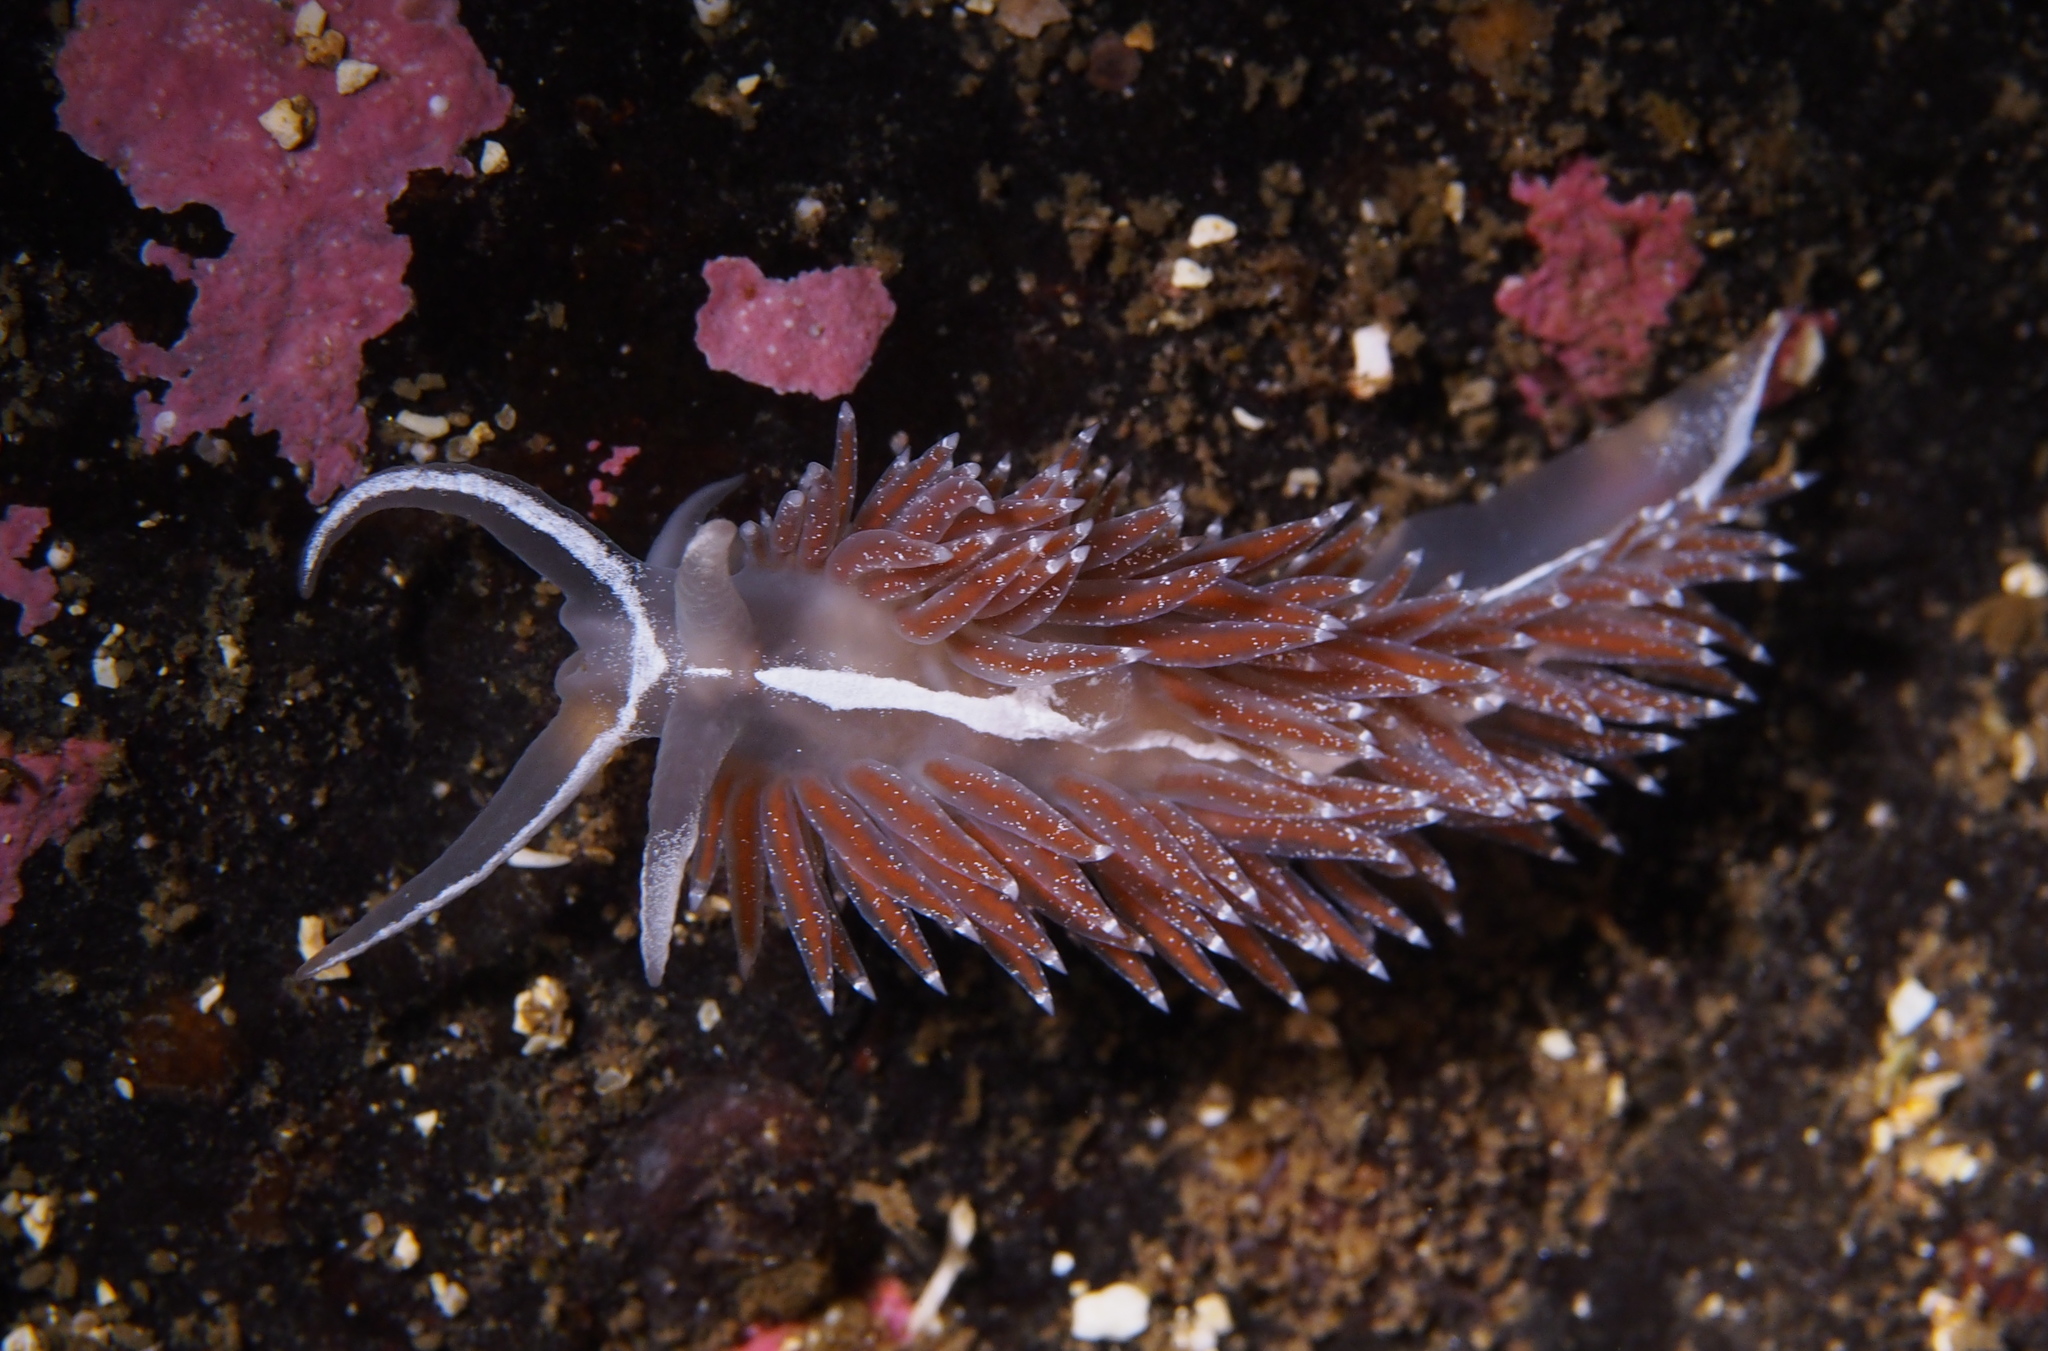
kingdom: Animalia
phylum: Mollusca
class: Gastropoda
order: Nudibranchia
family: Coryphellidae
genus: Coryphella
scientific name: Coryphella orjani
